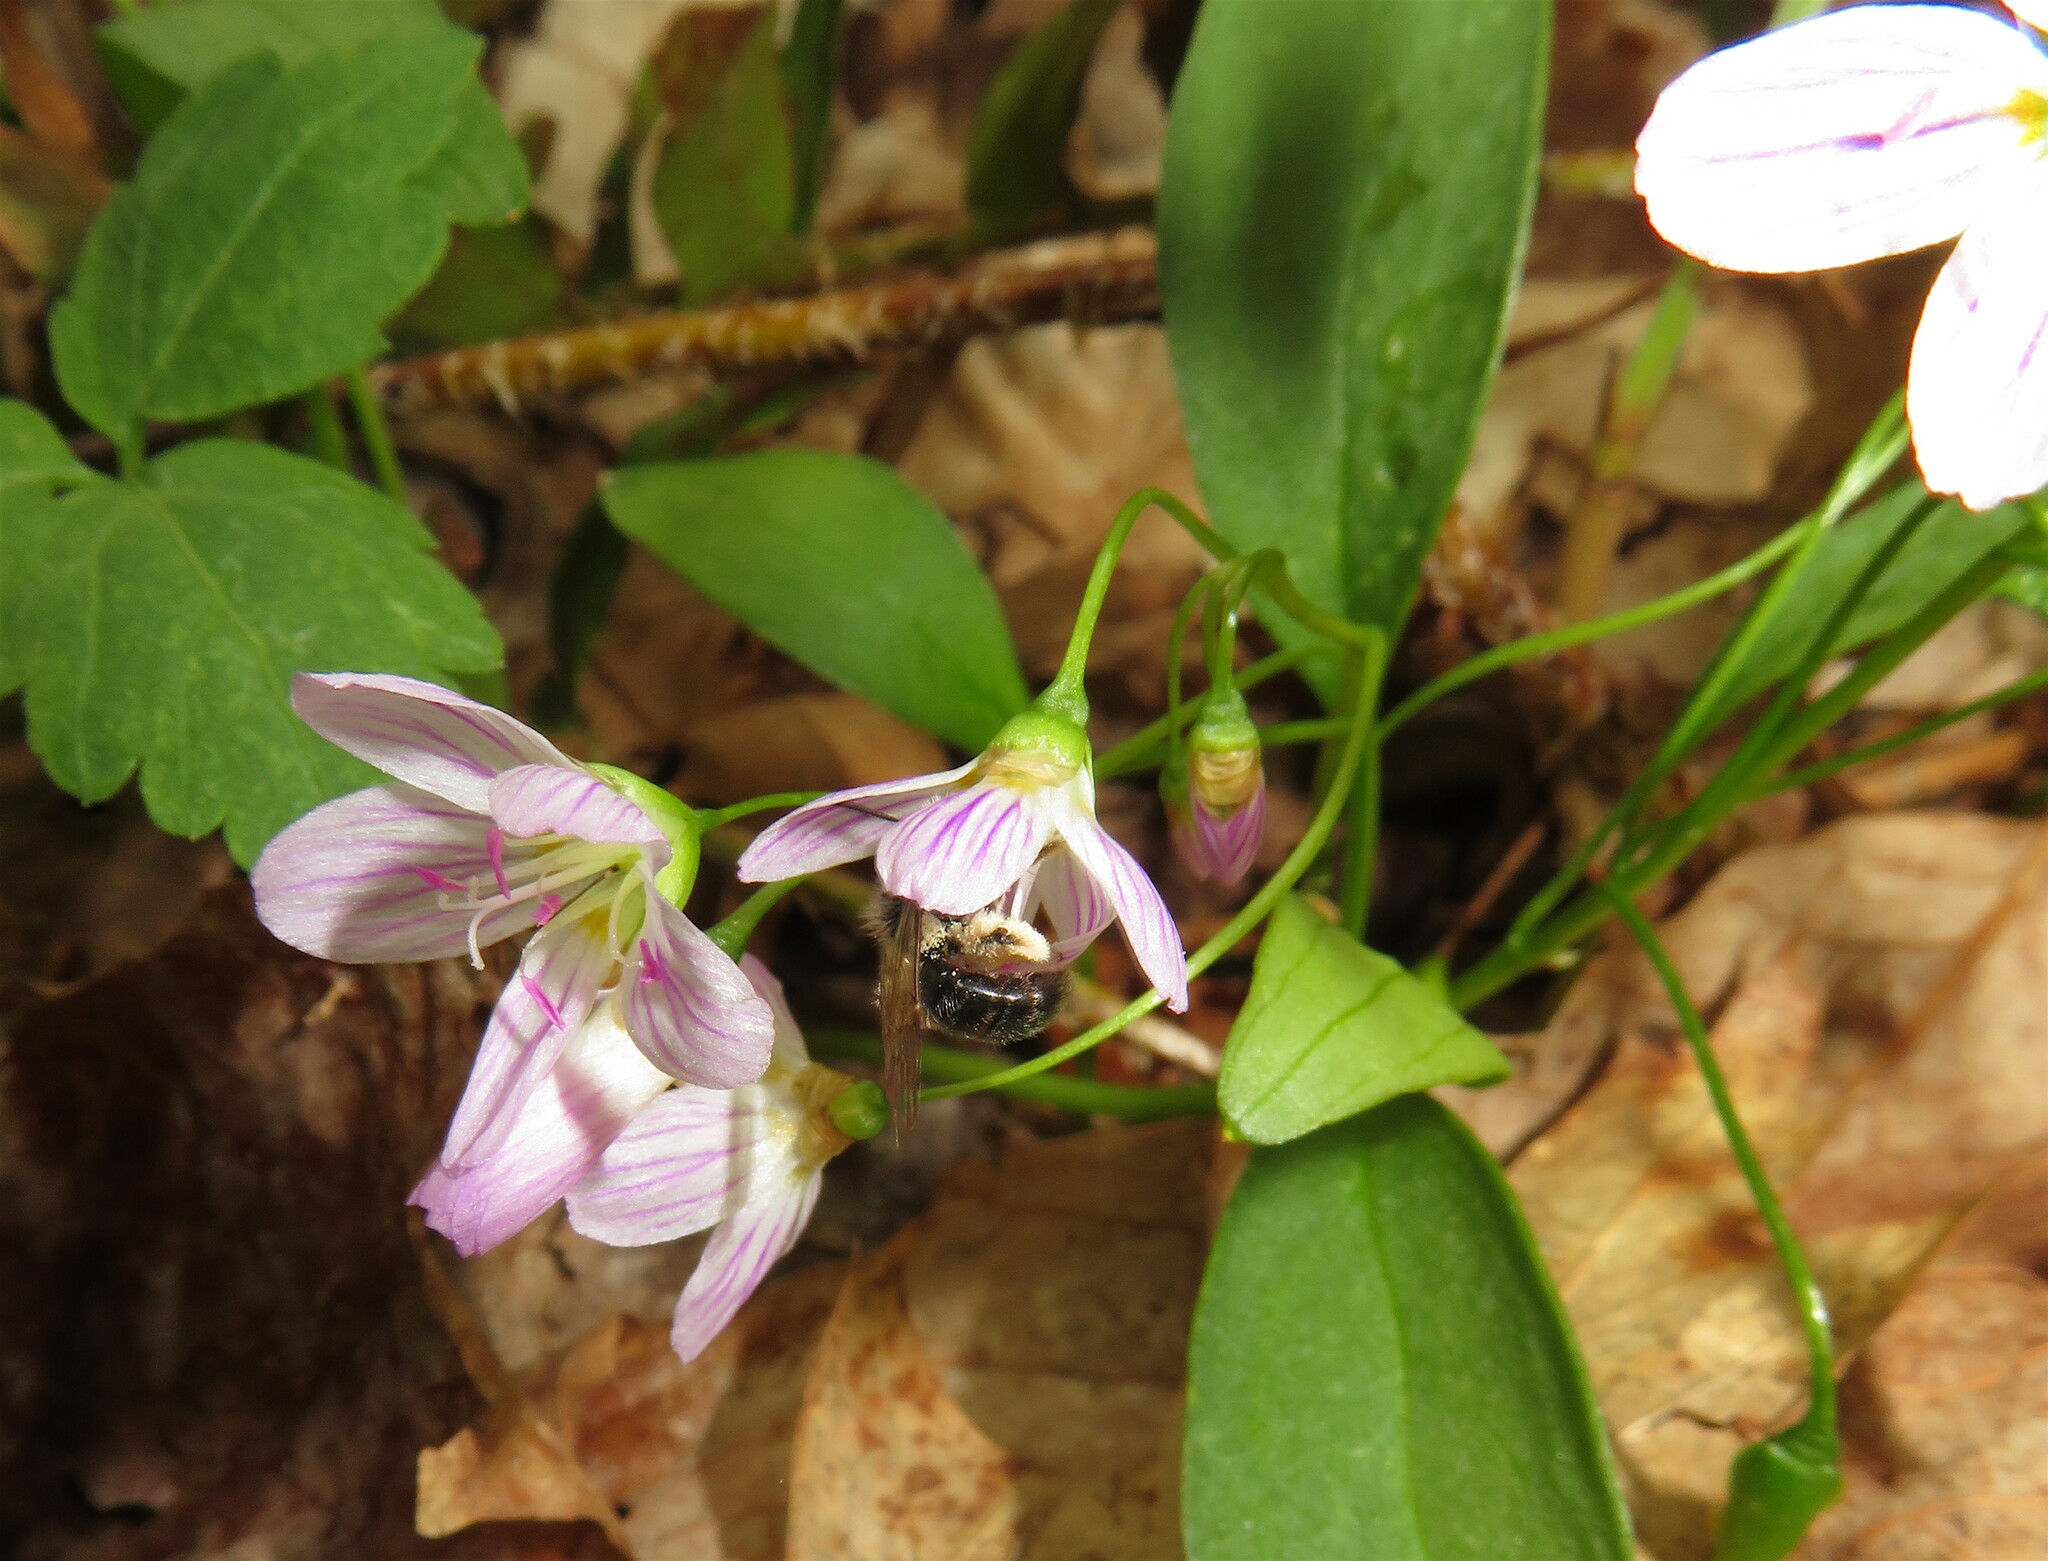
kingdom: Plantae
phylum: Tracheophyta
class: Magnoliopsida
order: Caryophyllales
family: Montiaceae
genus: Claytonia
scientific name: Claytonia caroliniana
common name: Carolina spring beauty
